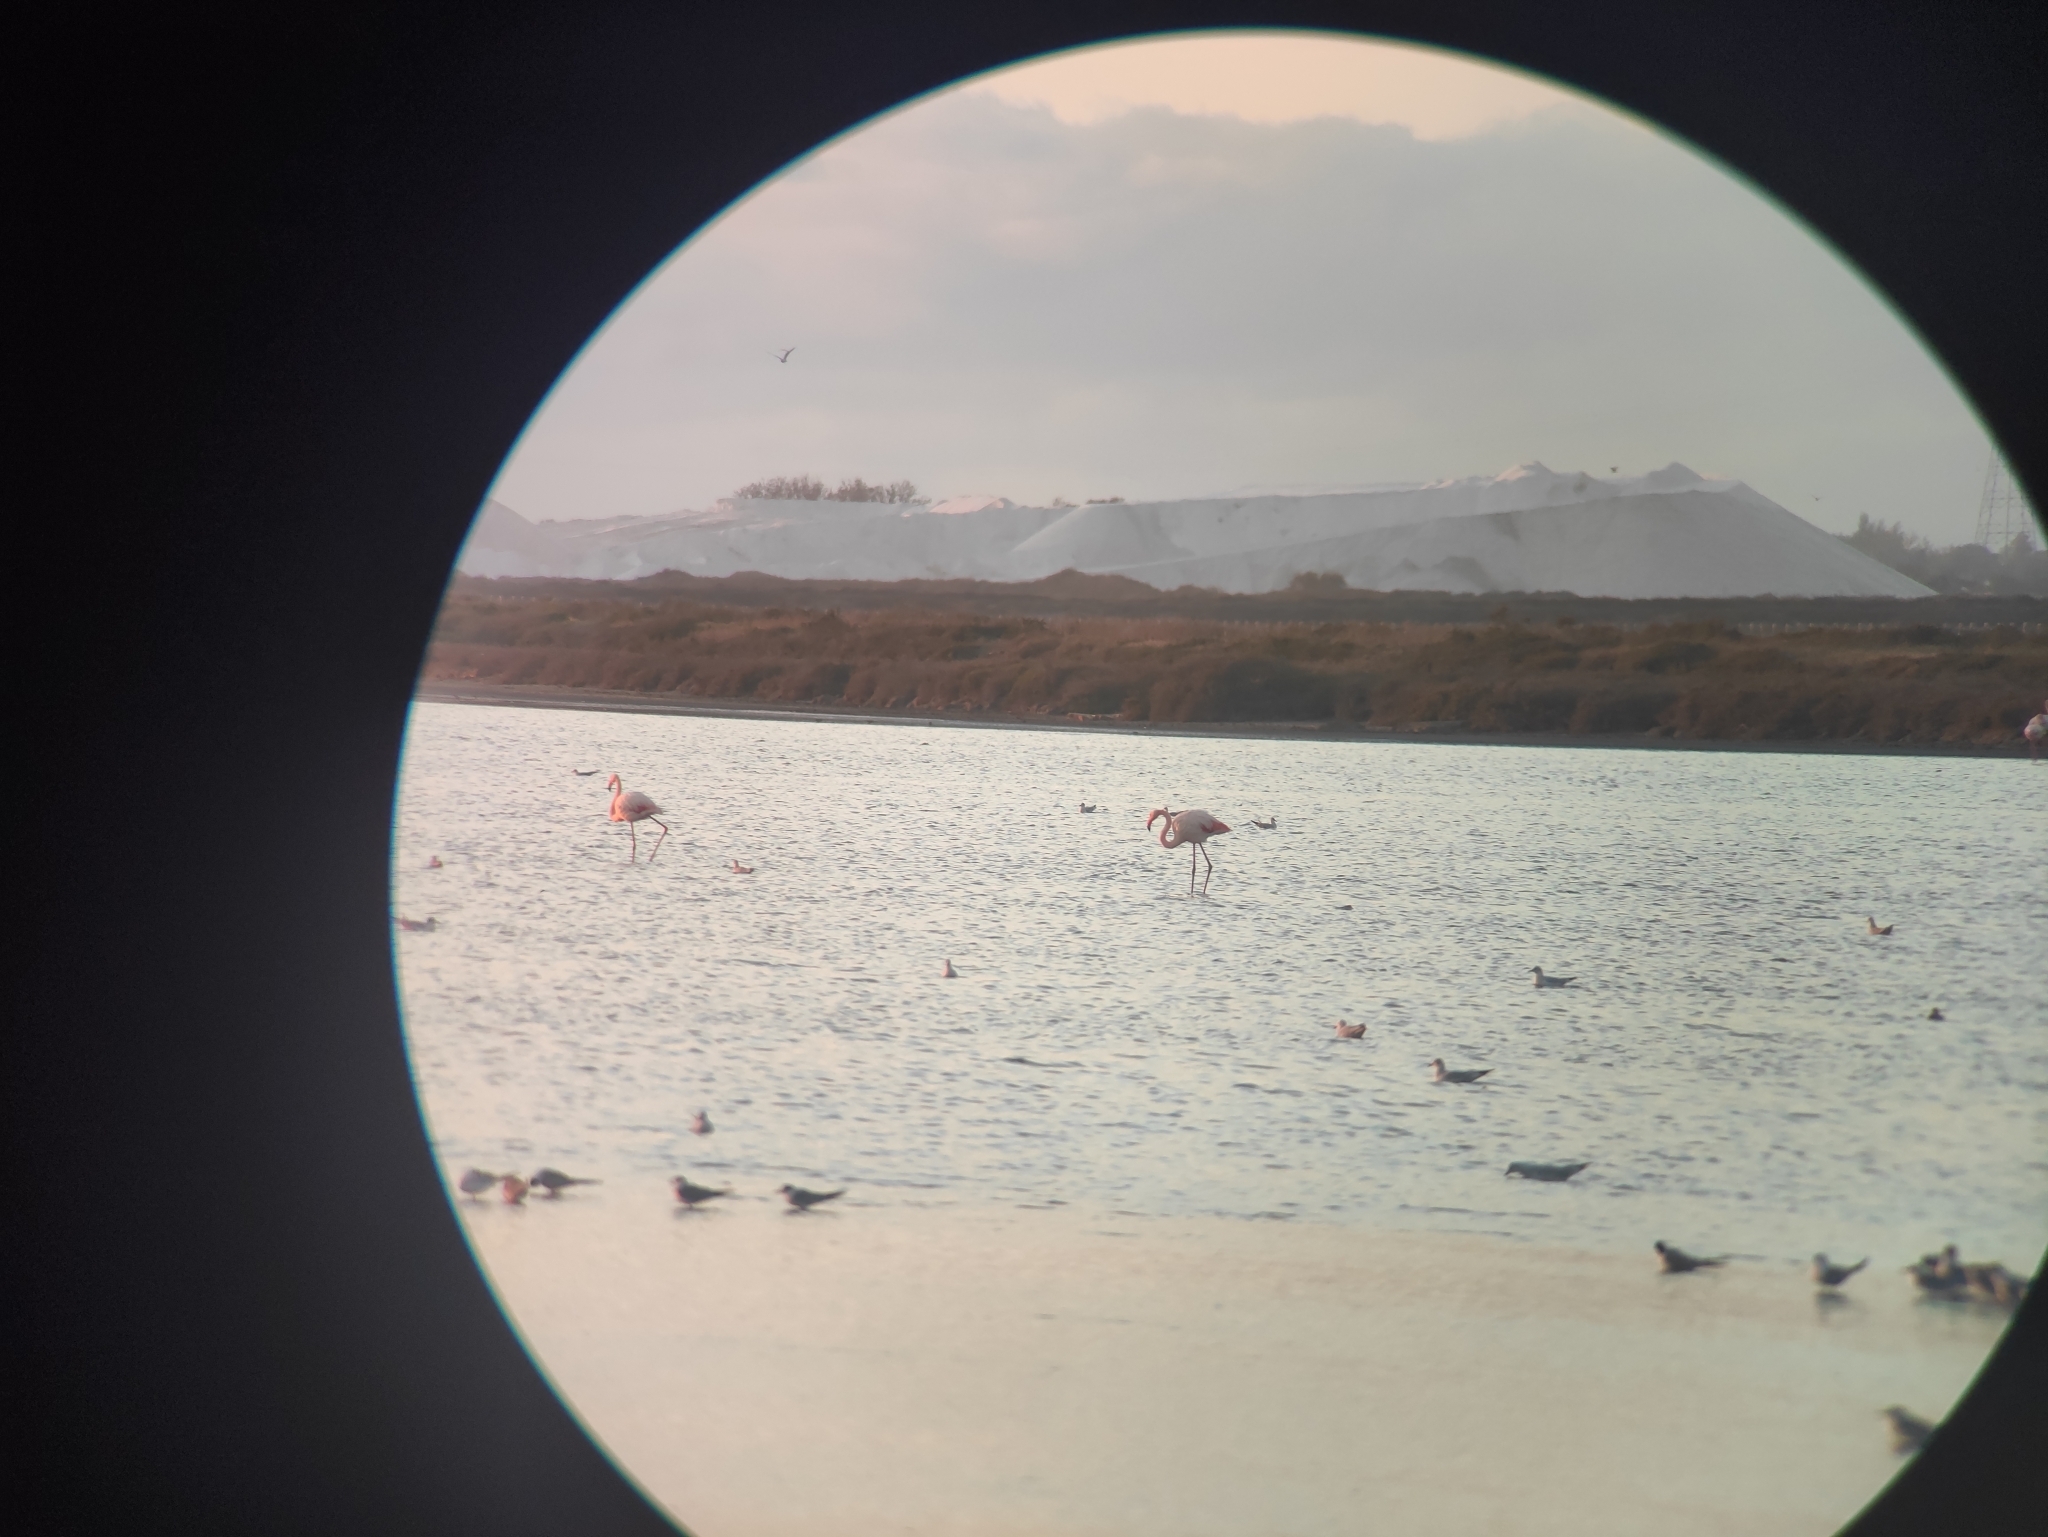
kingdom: Animalia
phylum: Chordata
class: Aves
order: Phoenicopteriformes
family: Phoenicopteridae
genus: Phoenicopterus
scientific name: Phoenicopterus roseus
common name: Greater flamingo
